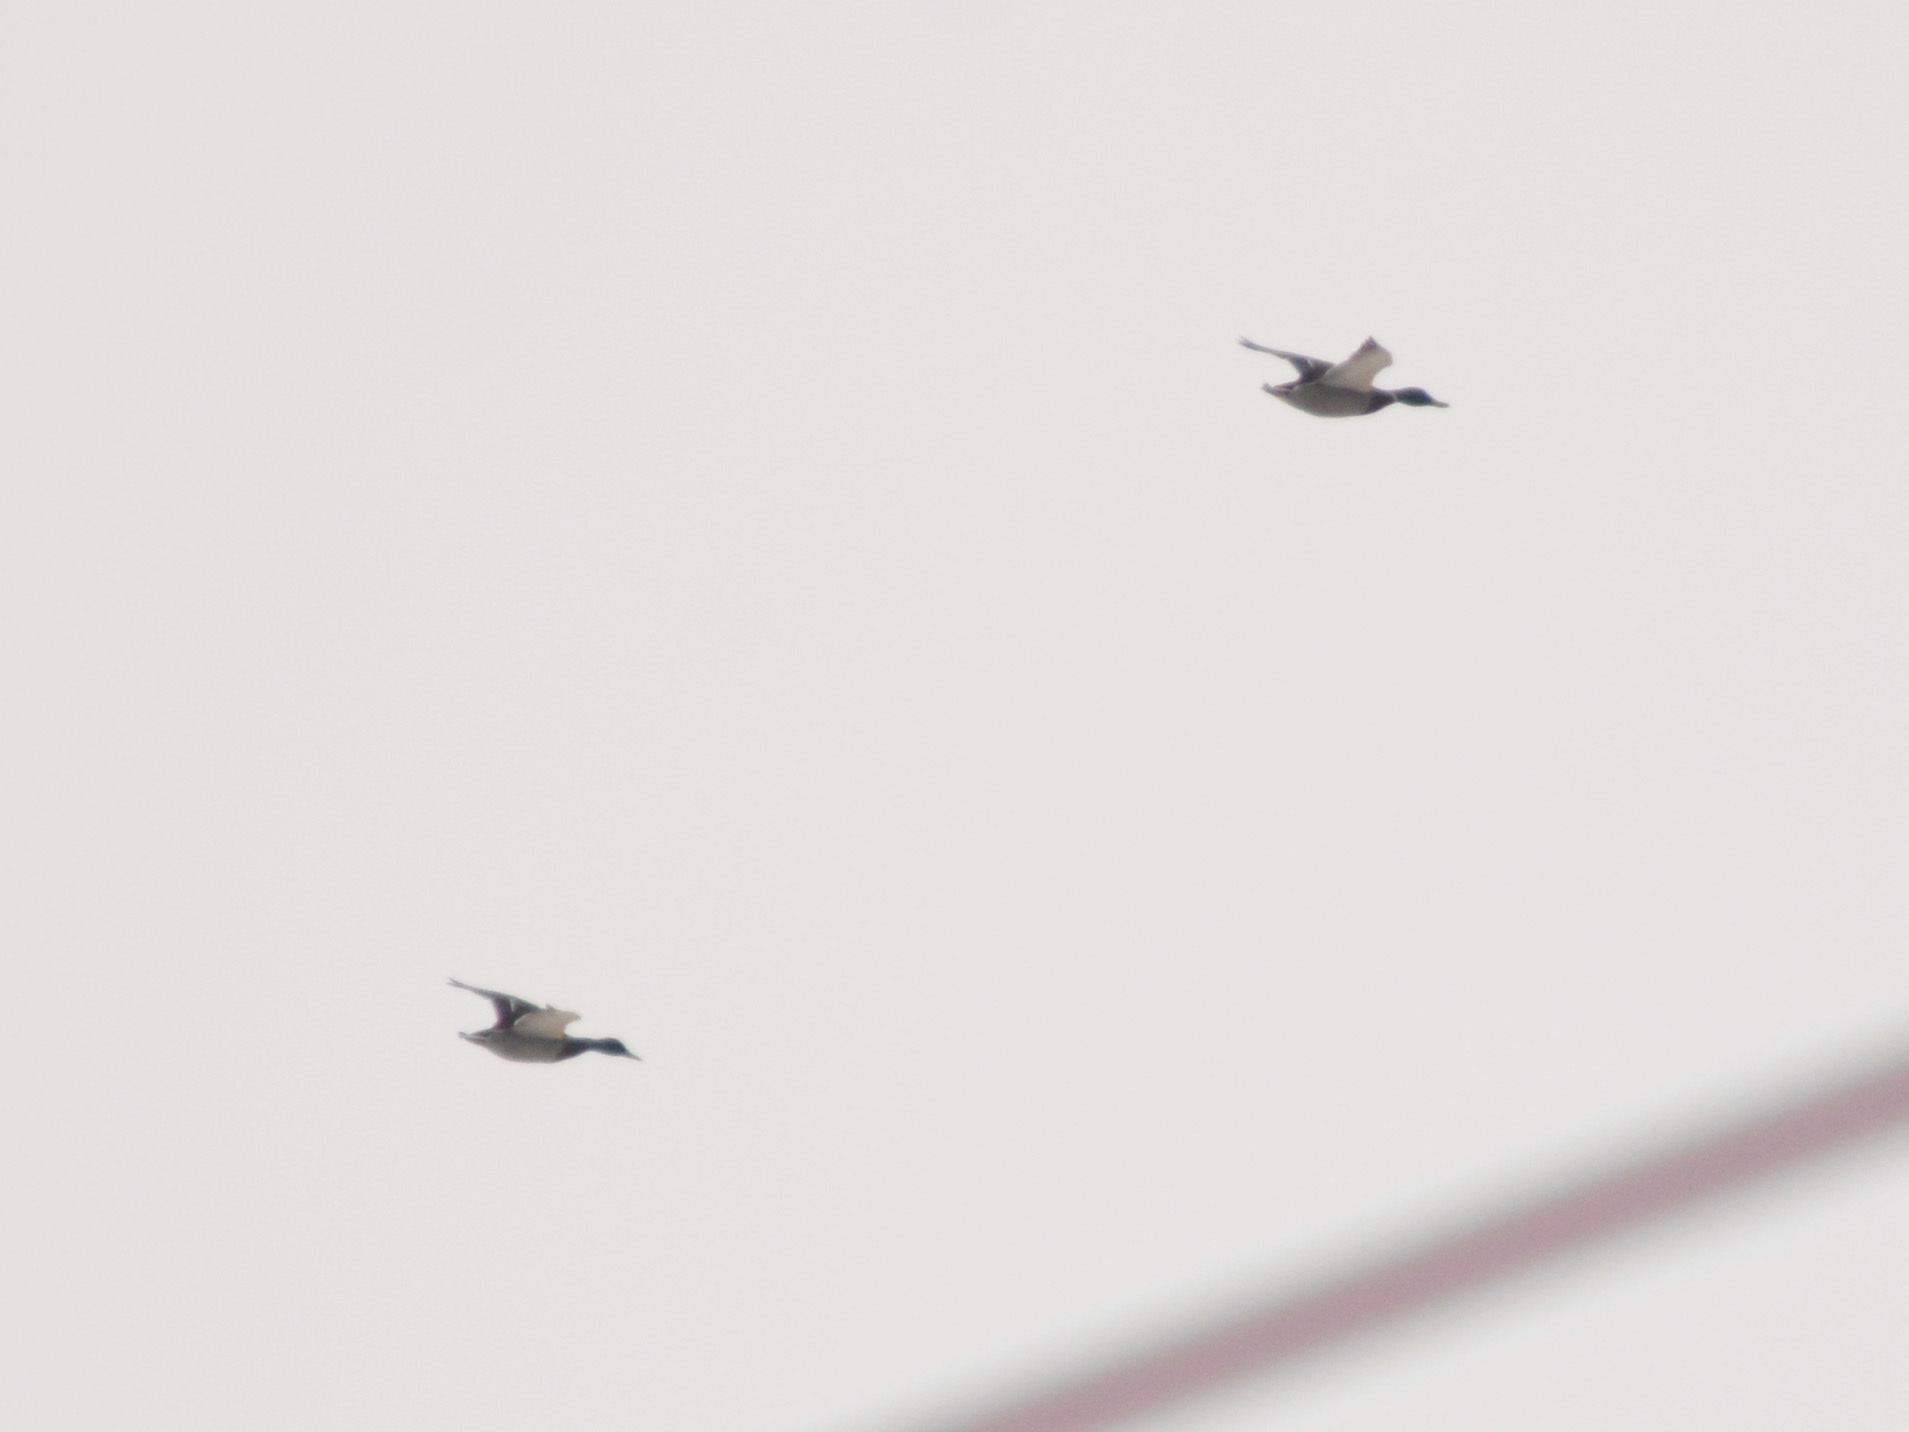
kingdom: Animalia
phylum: Chordata
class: Aves
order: Anseriformes
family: Anatidae
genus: Anas
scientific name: Anas platyrhynchos
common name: Mallard
